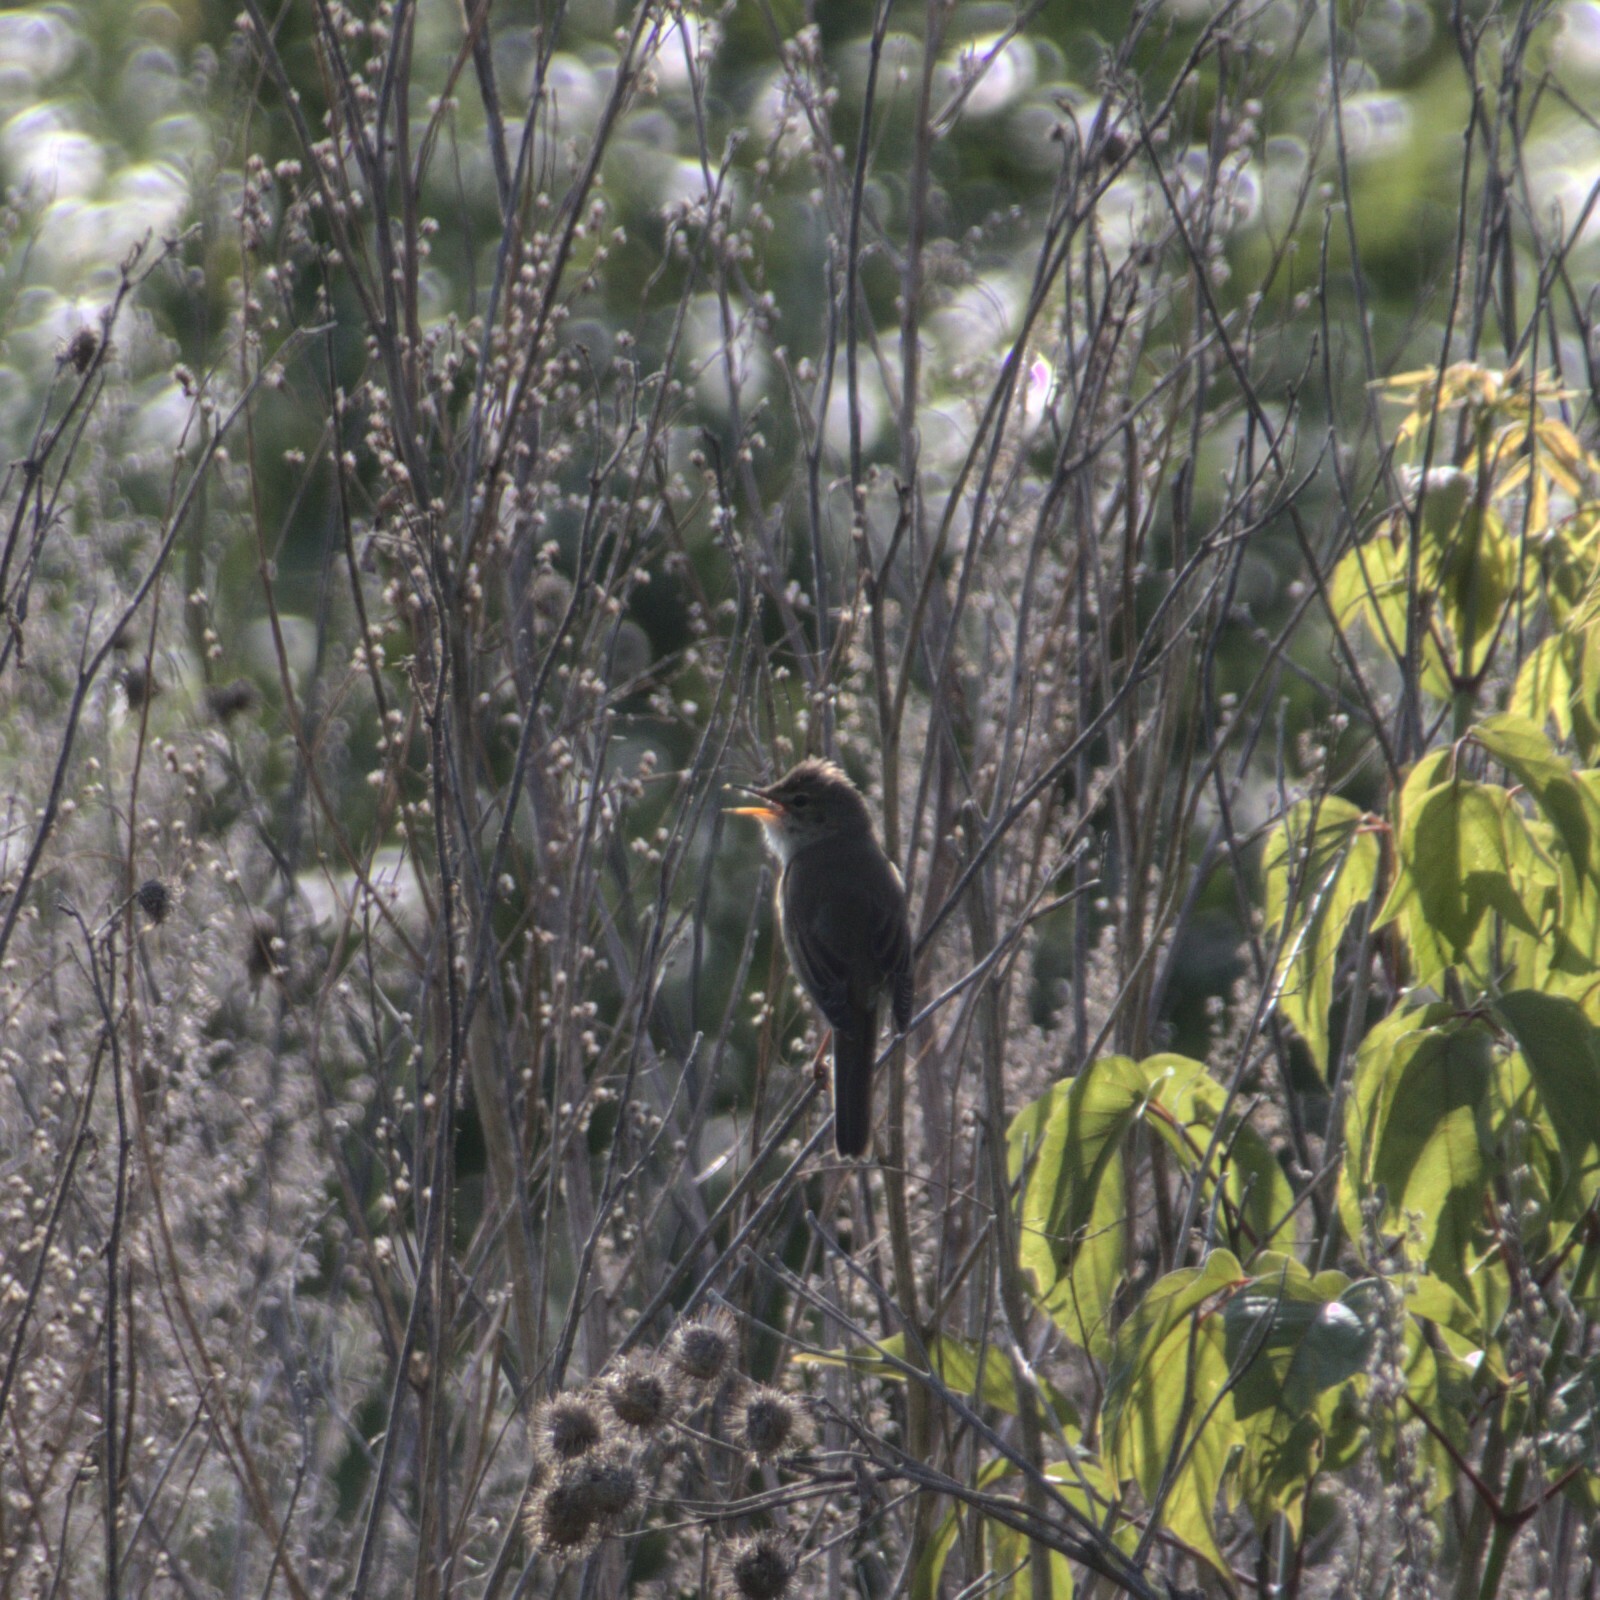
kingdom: Animalia
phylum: Chordata
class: Aves
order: Passeriformes
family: Acrocephalidae
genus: Acrocephalus
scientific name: Acrocephalus palustris
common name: Marsh warbler
